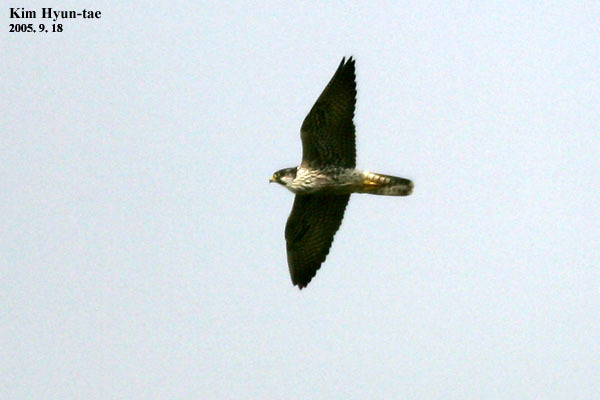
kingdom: Animalia
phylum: Chordata
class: Aves
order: Falconiformes
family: Falconidae
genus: Falco
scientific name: Falco peregrinus
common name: Peregrine falcon
